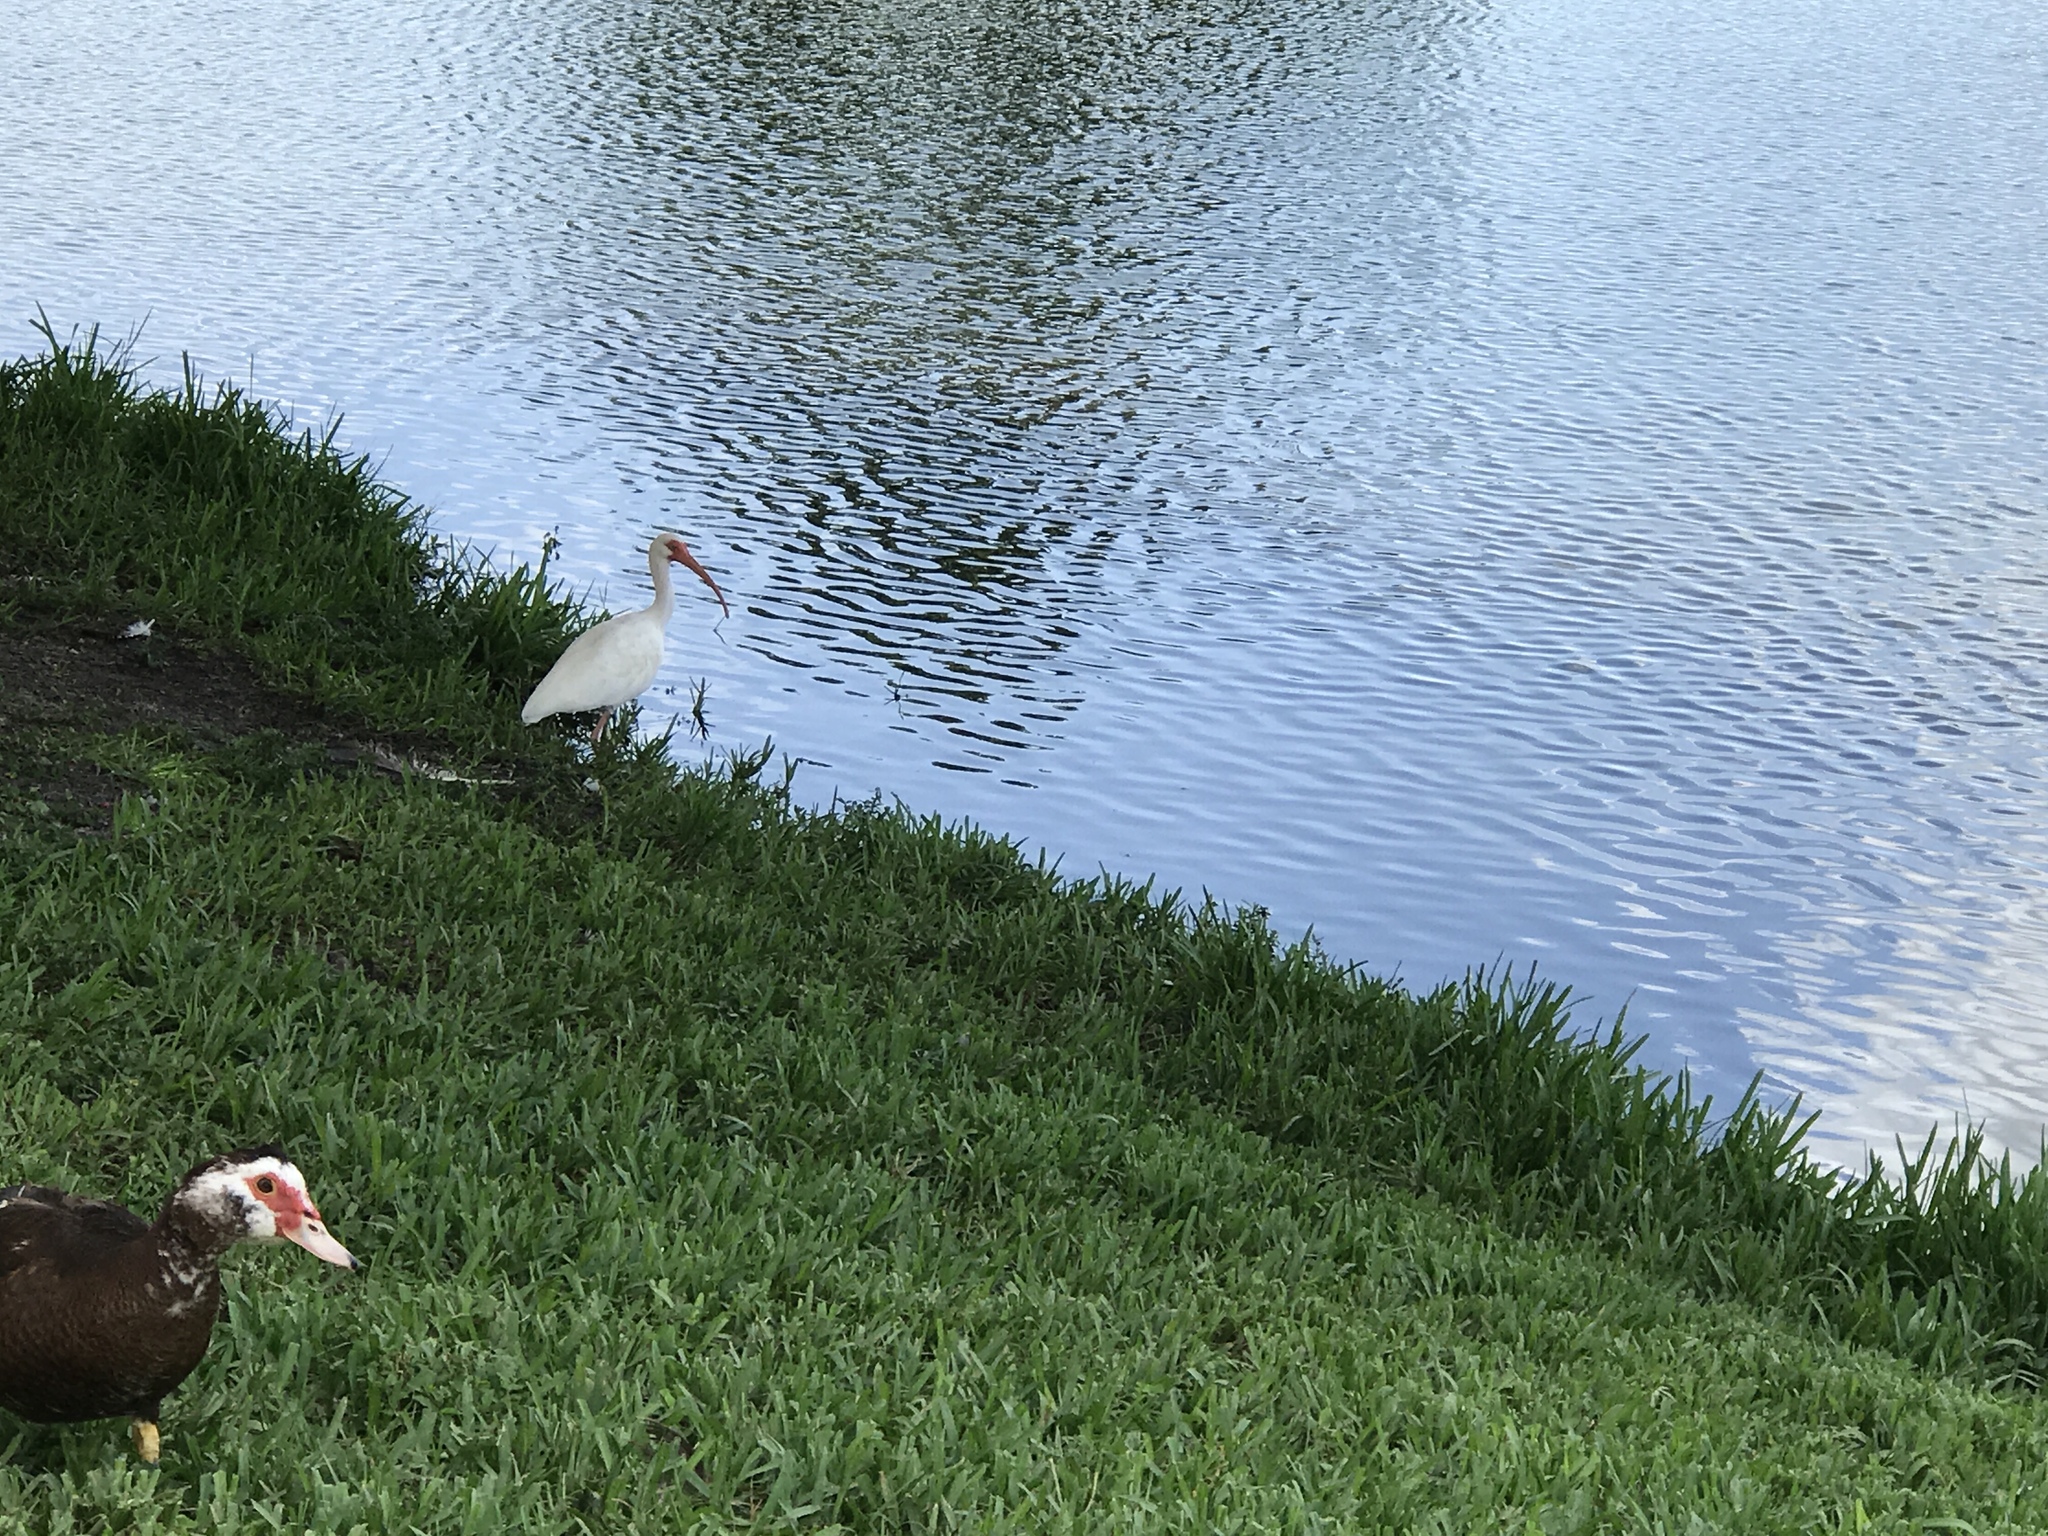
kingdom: Animalia
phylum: Chordata
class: Aves
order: Pelecaniformes
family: Threskiornithidae
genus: Eudocimus
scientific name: Eudocimus albus
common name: White ibis
